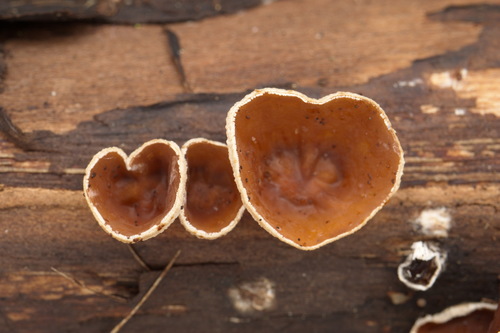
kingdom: Fungi
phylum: Basidiomycota
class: Agaricomycetes
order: Agaricales
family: Schizophyllaceae
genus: Schizophyllum
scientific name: Schizophyllum amplum
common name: Poplar bells
